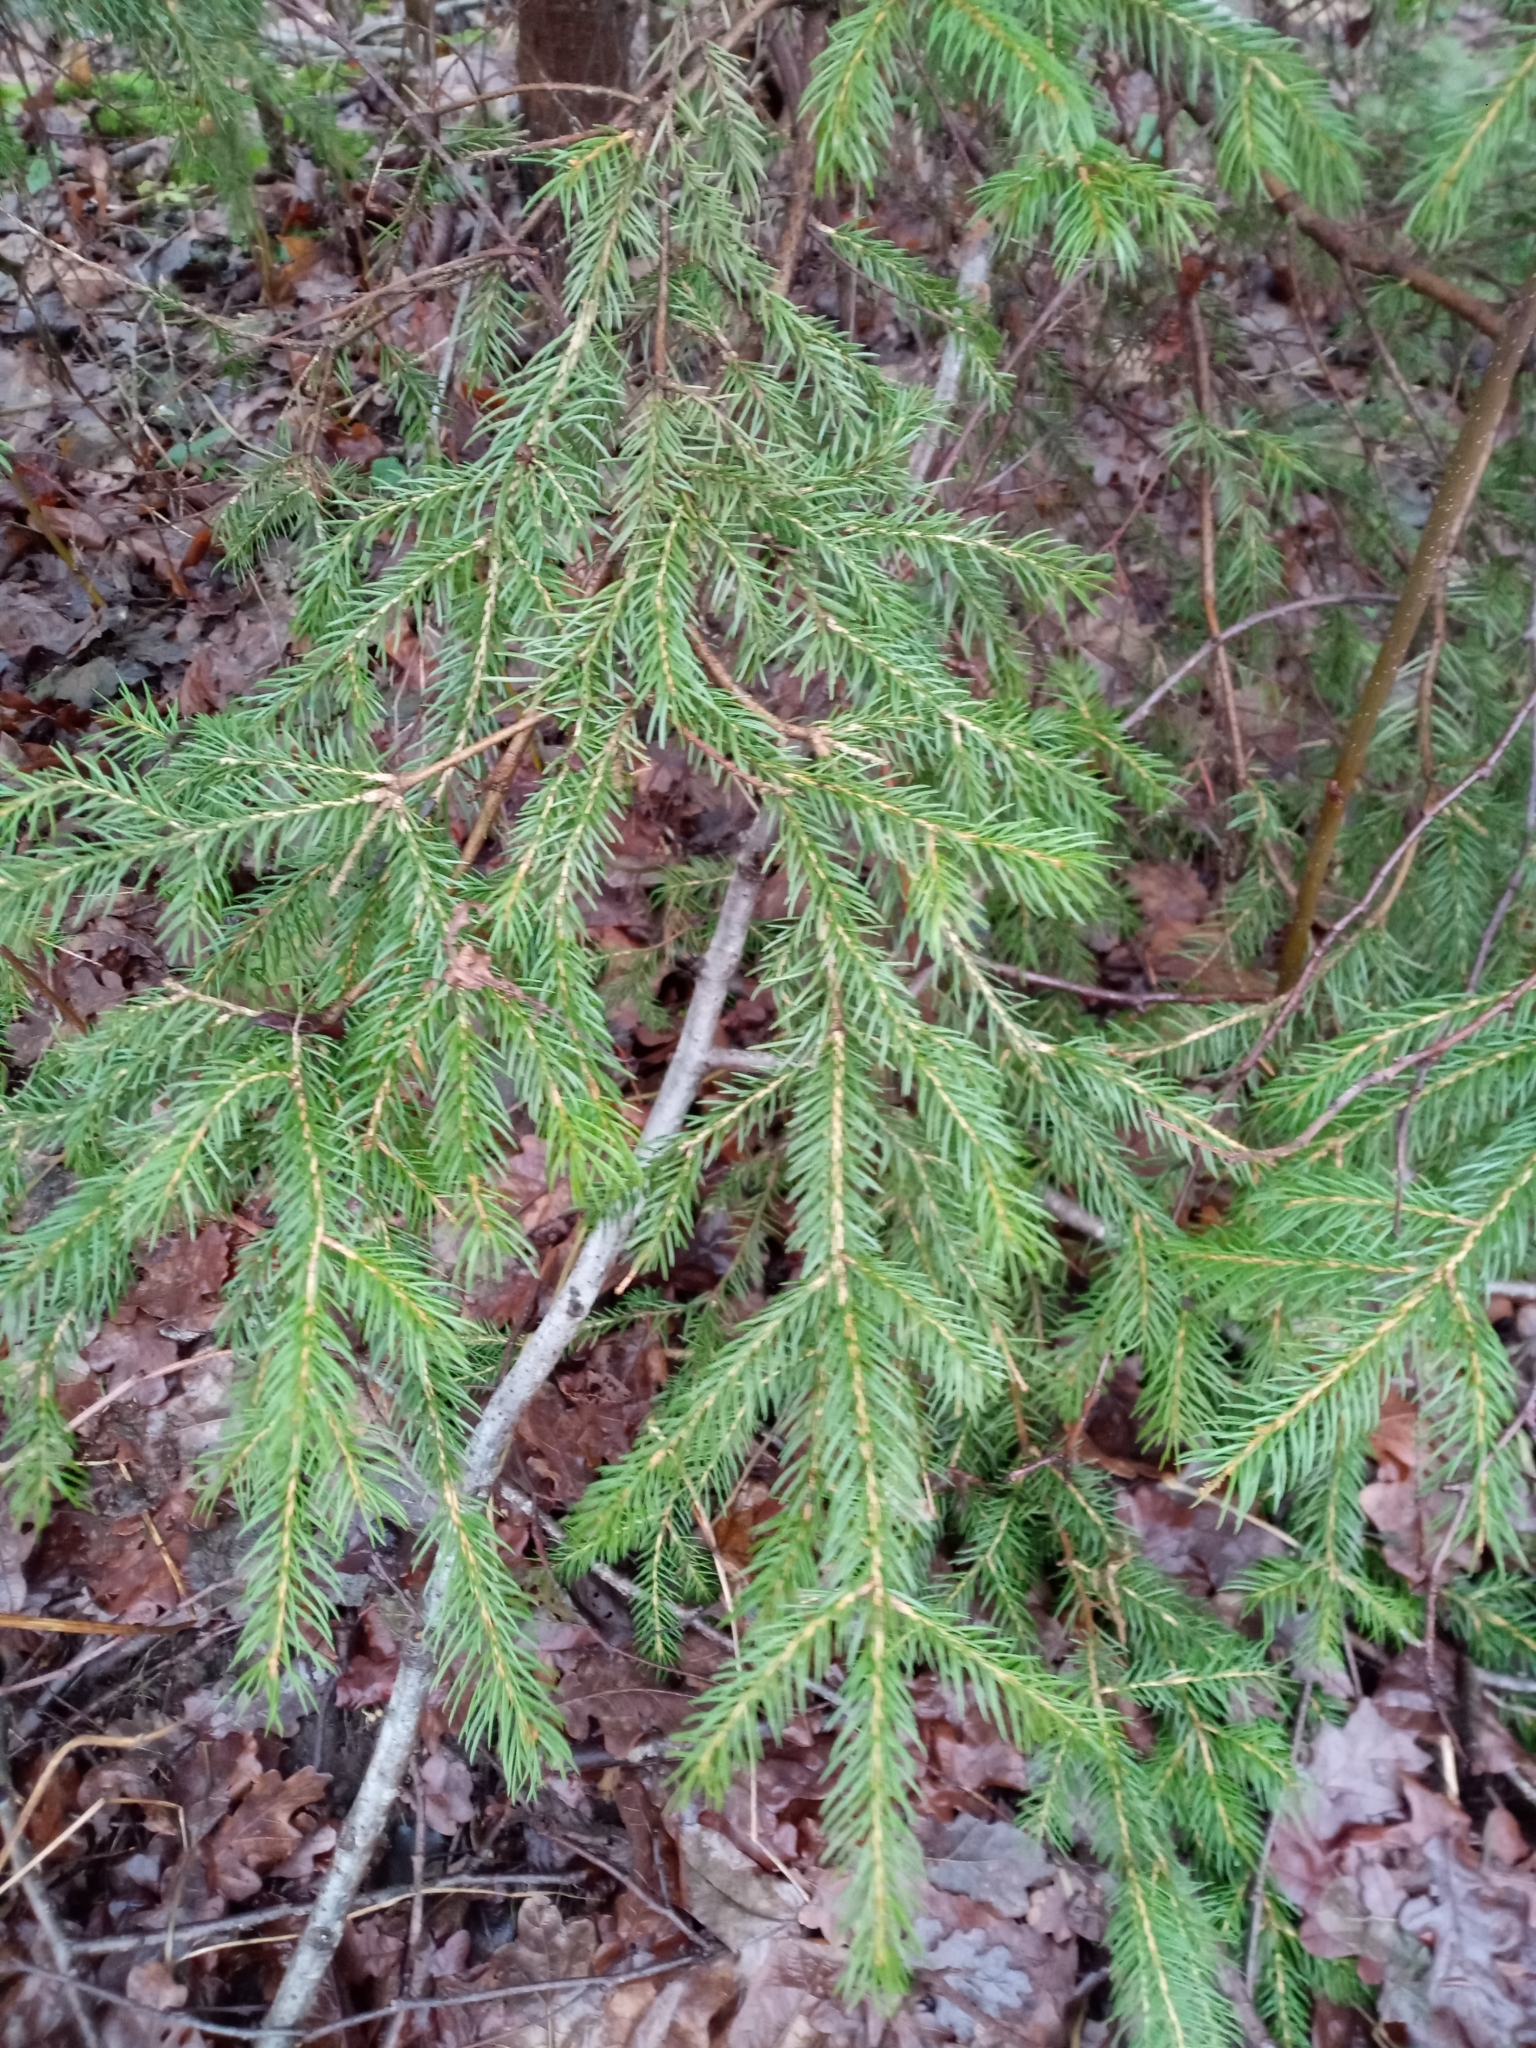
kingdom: Plantae
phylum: Tracheophyta
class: Pinopsida
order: Pinales
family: Pinaceae
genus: Picea
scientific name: Picea abies
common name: Norway spruce
